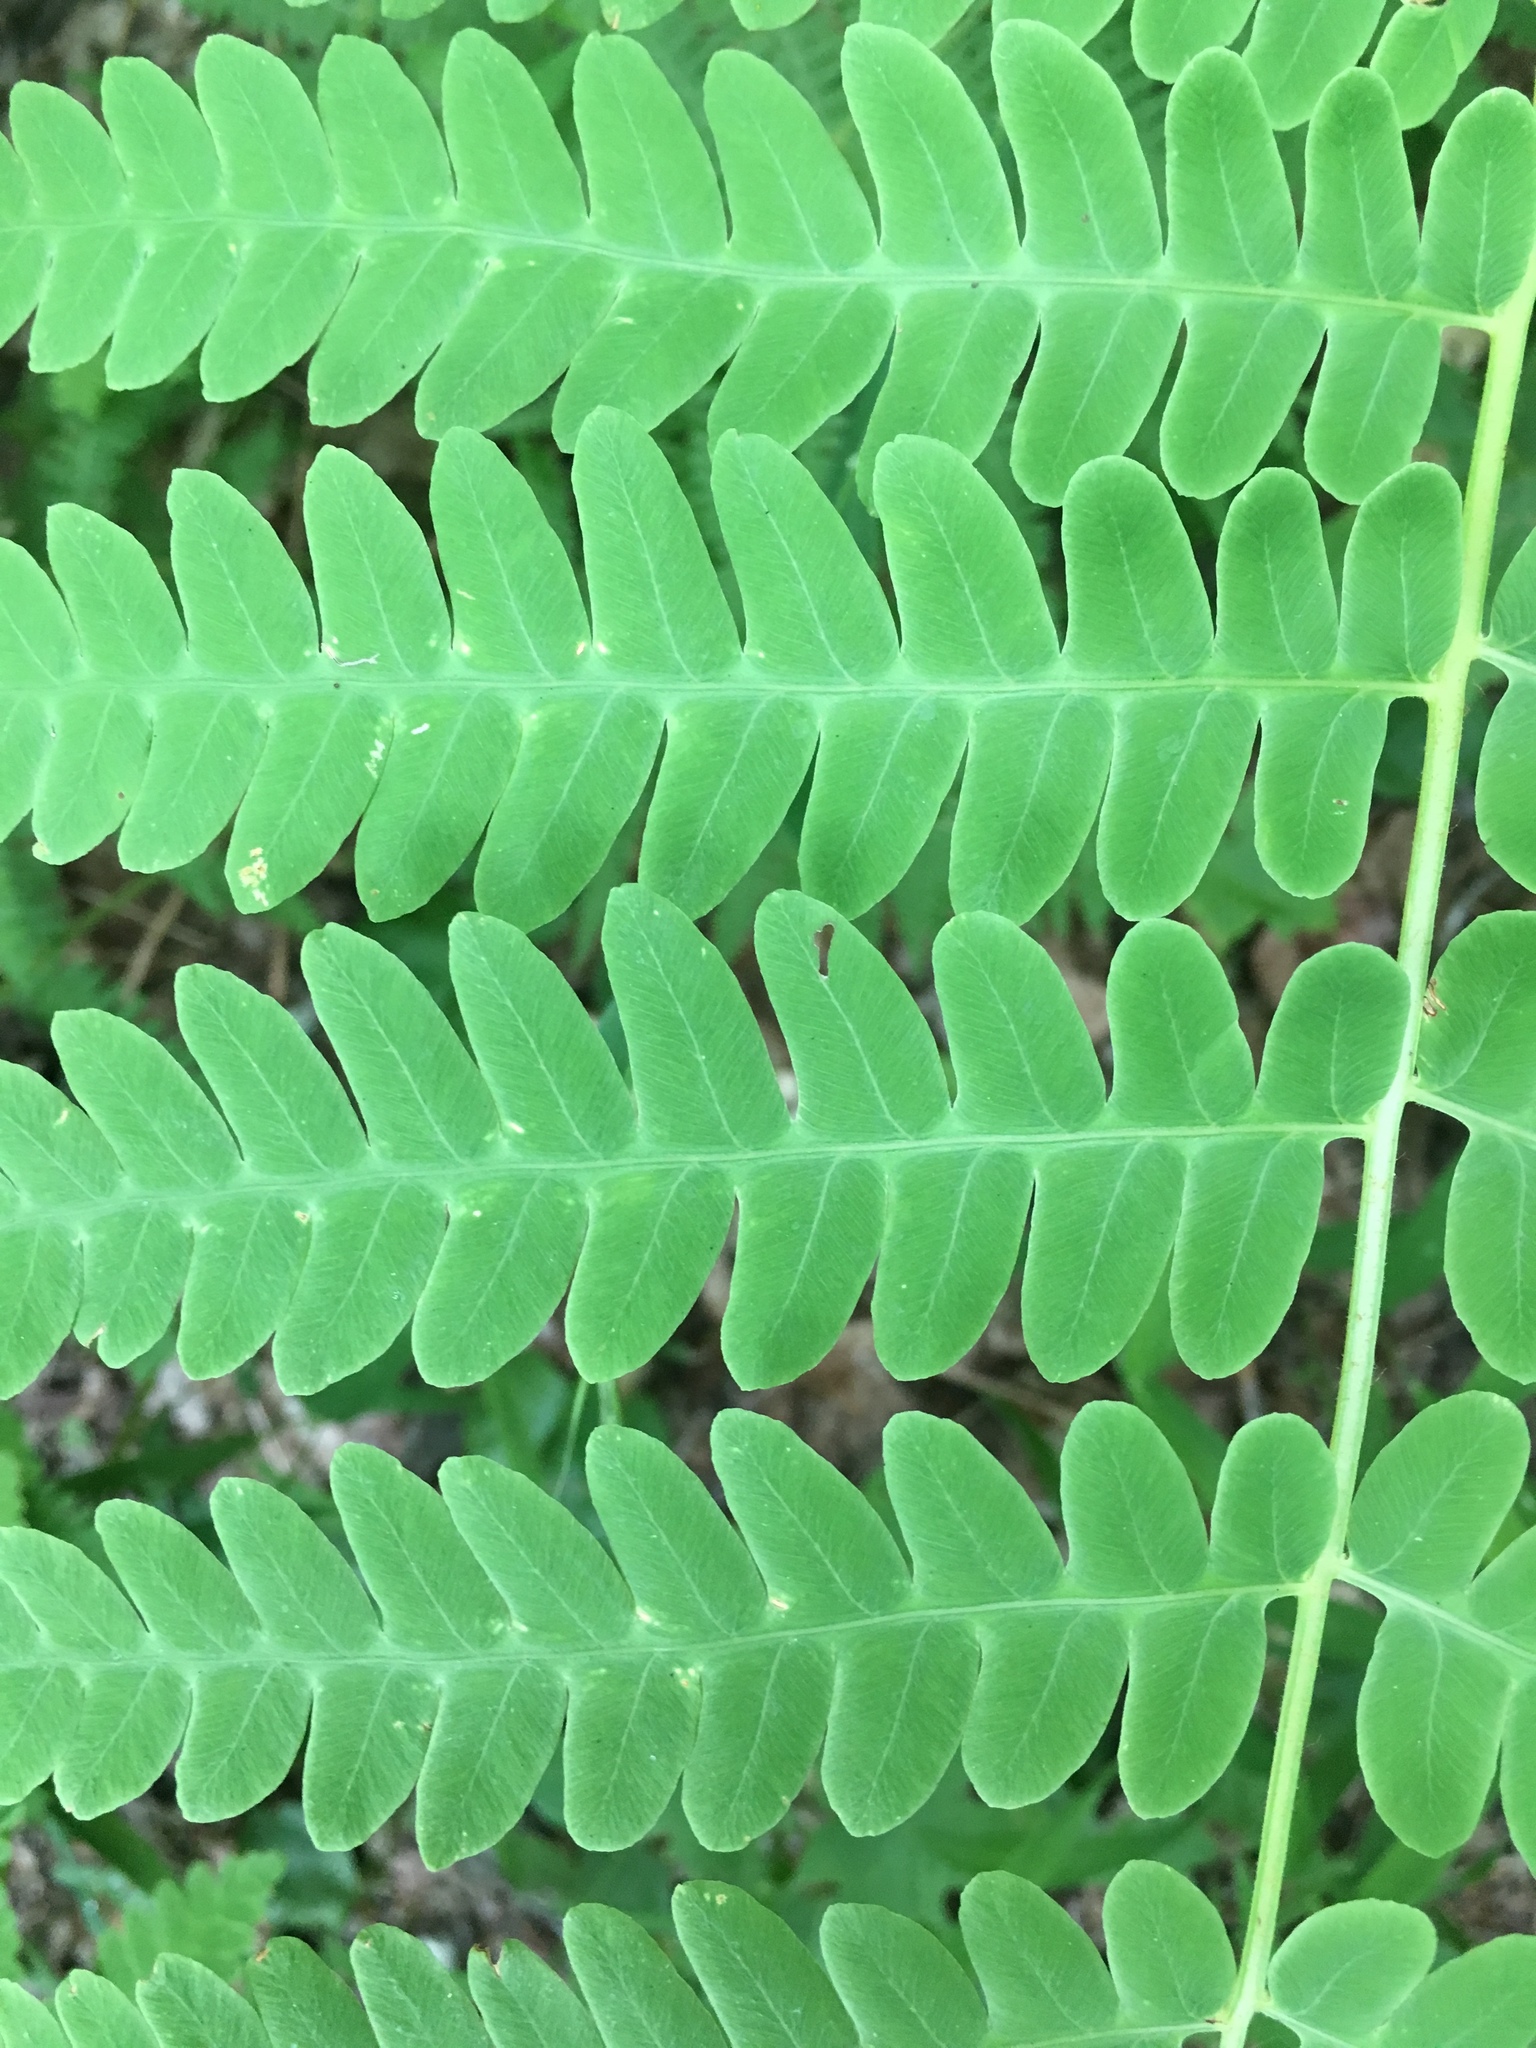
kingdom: Plantae
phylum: Tracheophyta
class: Polypodiopsida
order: Osmundales
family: Osmundaceae
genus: Claytosmunda
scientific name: Claytosmunda claytoniana
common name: Clayton's fern
